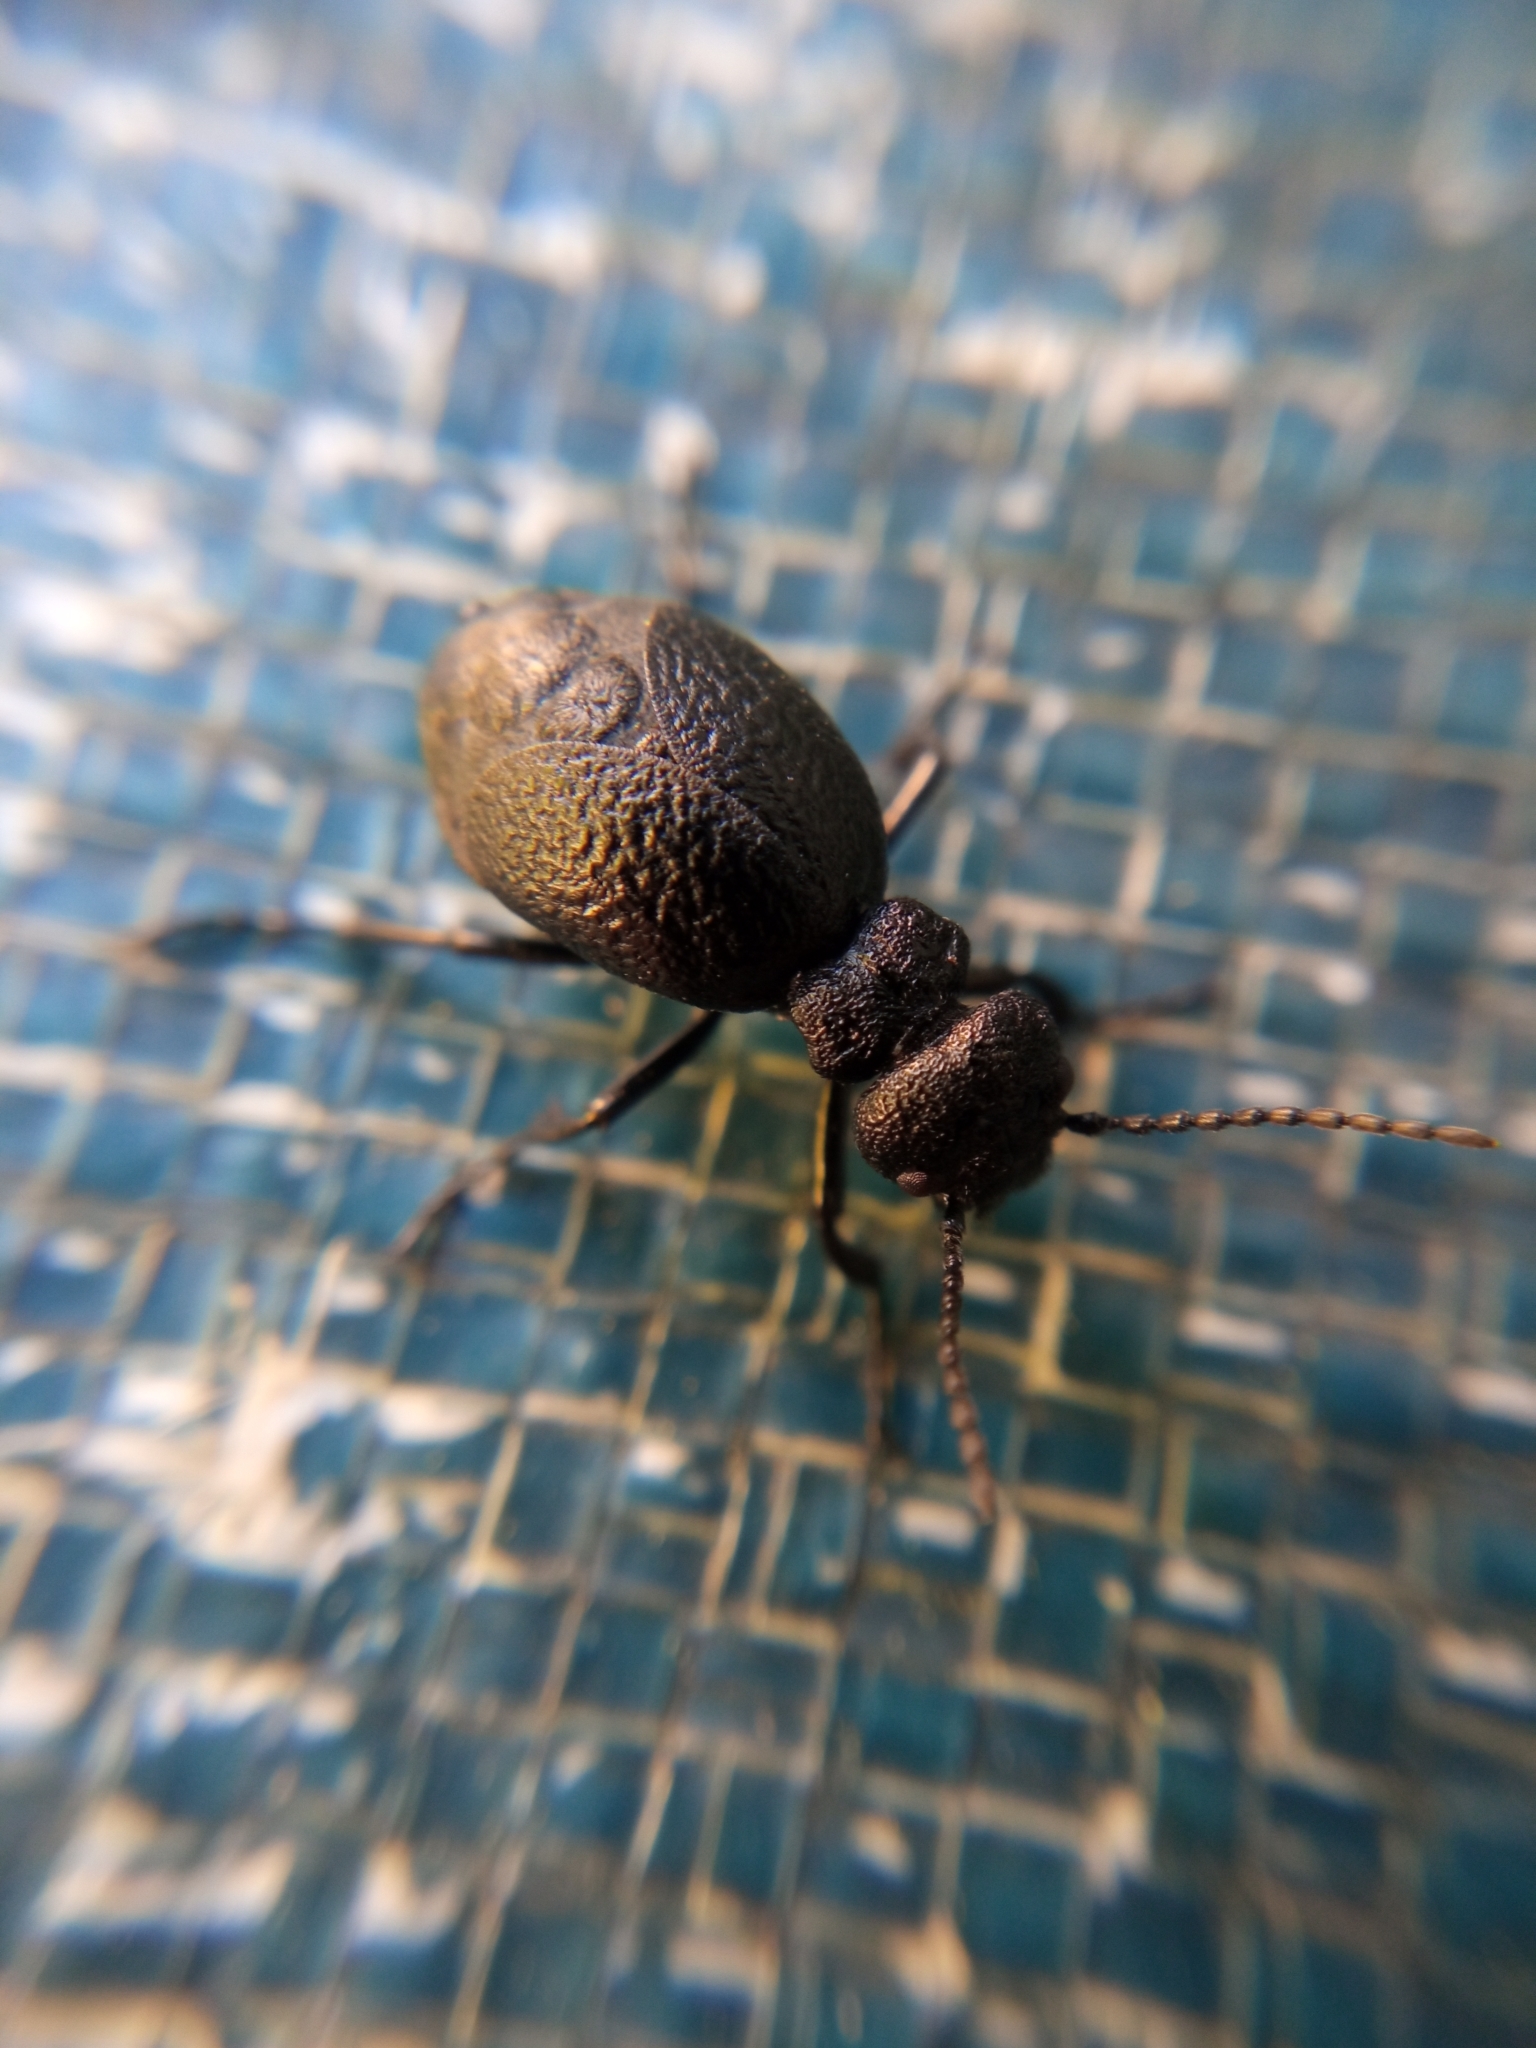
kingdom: Animalia
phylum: Arthropoda
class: Insecta
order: Coleoptera
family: Meloidae
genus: Meloe
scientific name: Meloe rugosus
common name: Rugged oil-beetle
